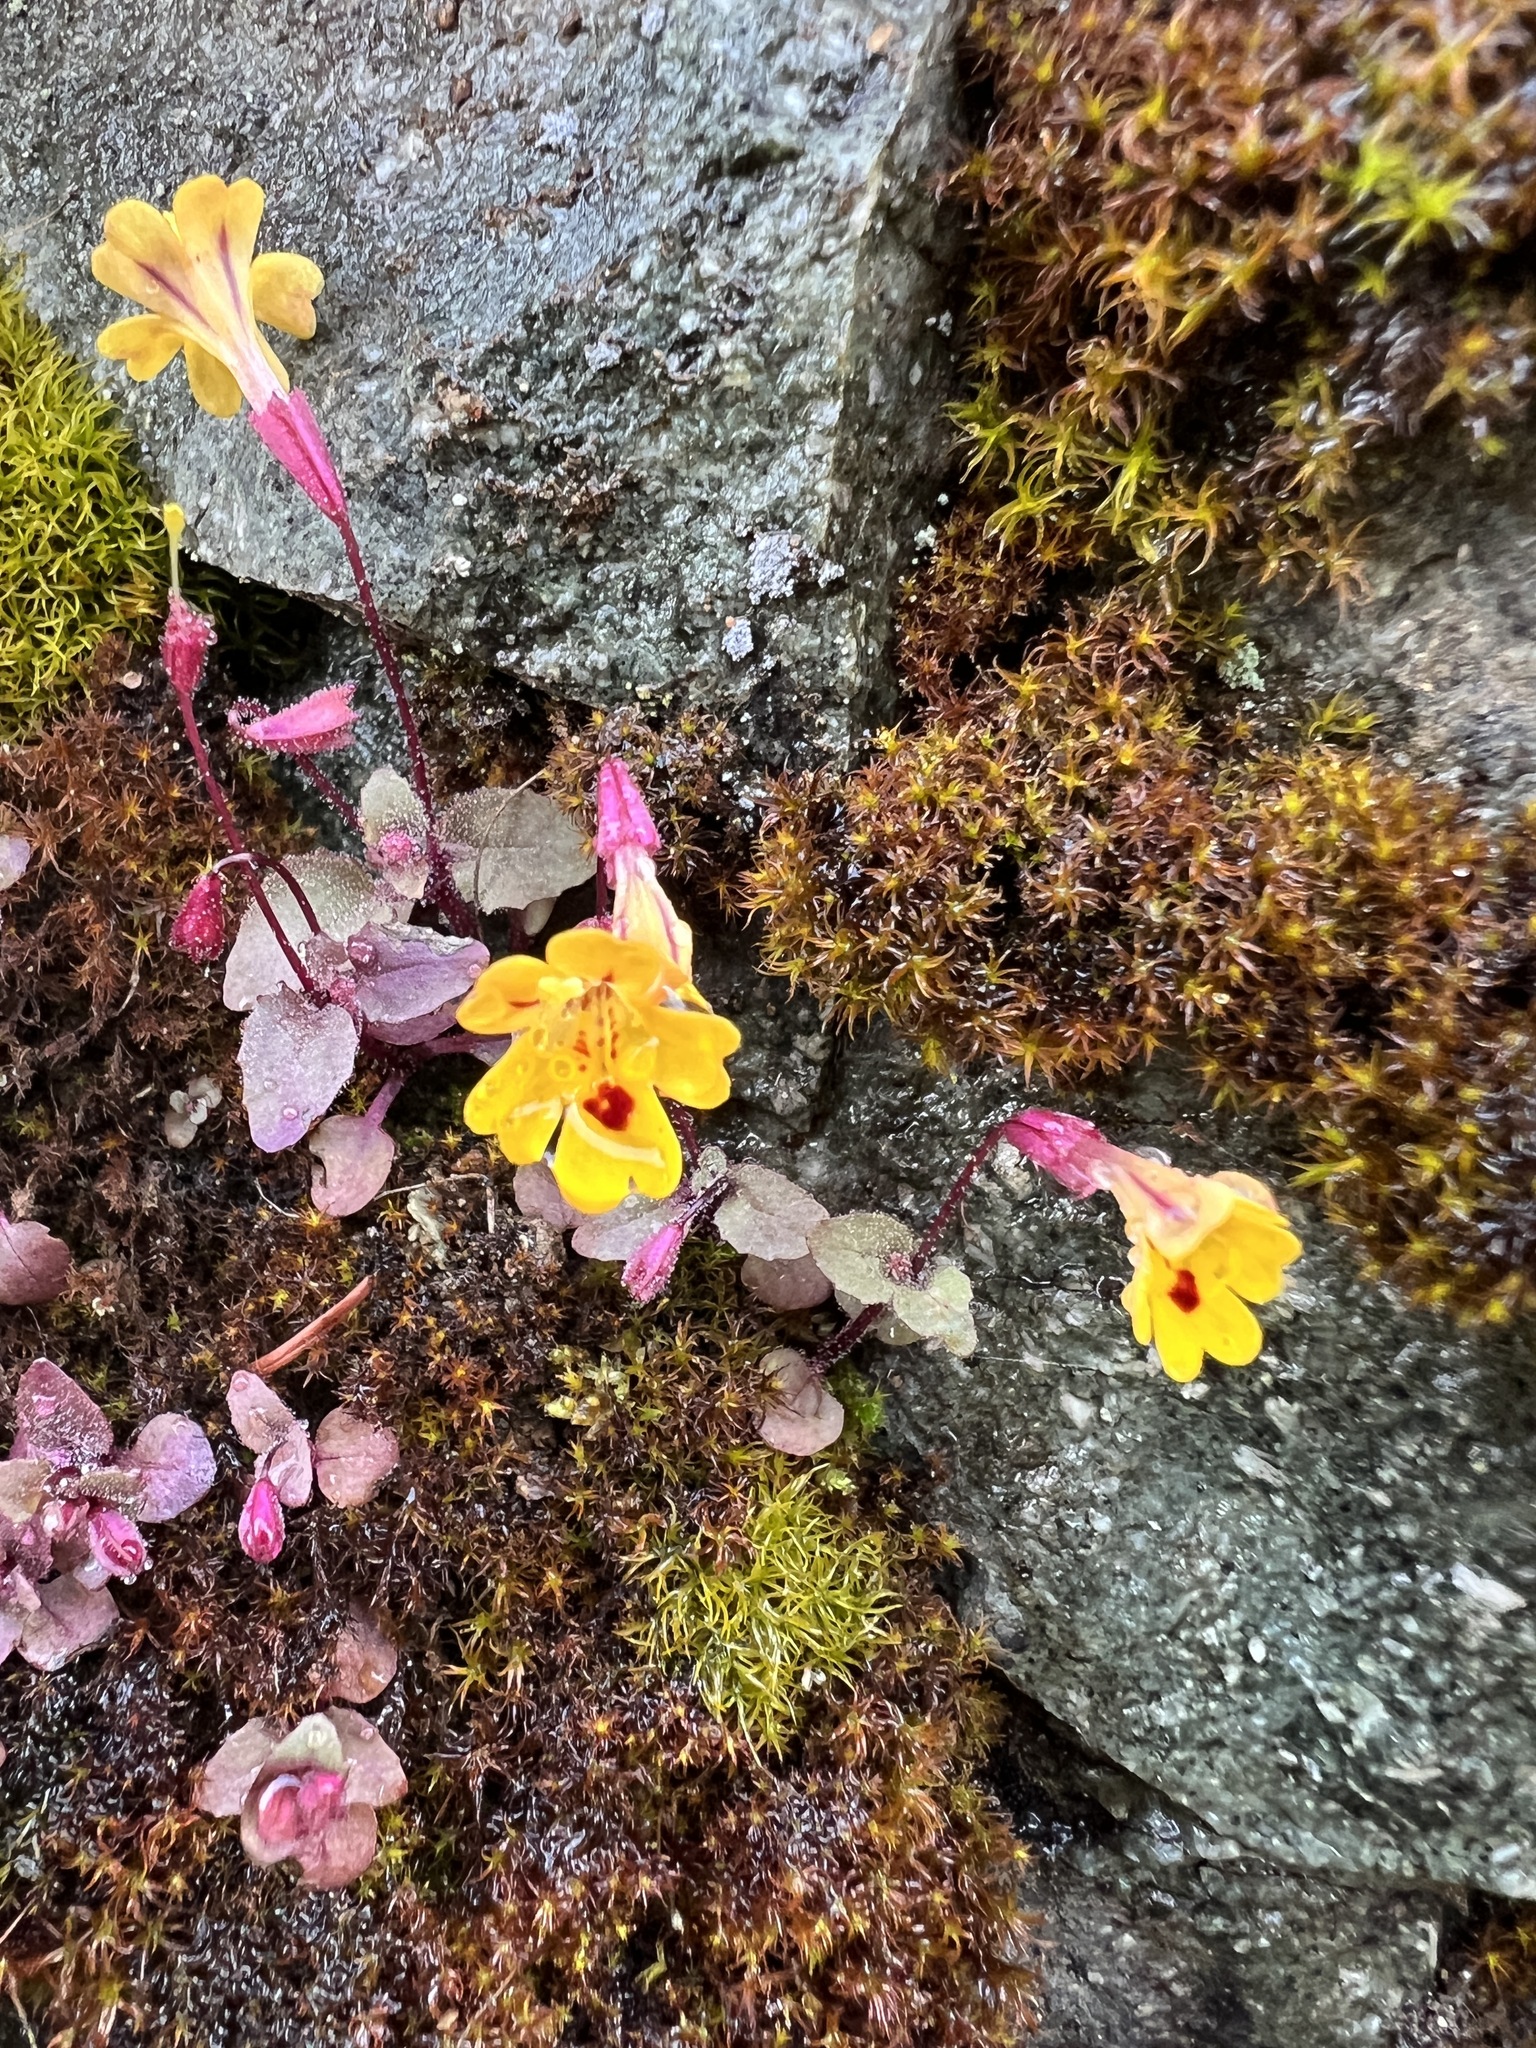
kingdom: Plantae
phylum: Tracheophyta
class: Magnoliopsida
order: Lamiales
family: Phrymaceae
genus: Erythranthe
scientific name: Erythranthe alsinoides
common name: Chickweed monkeyflower
